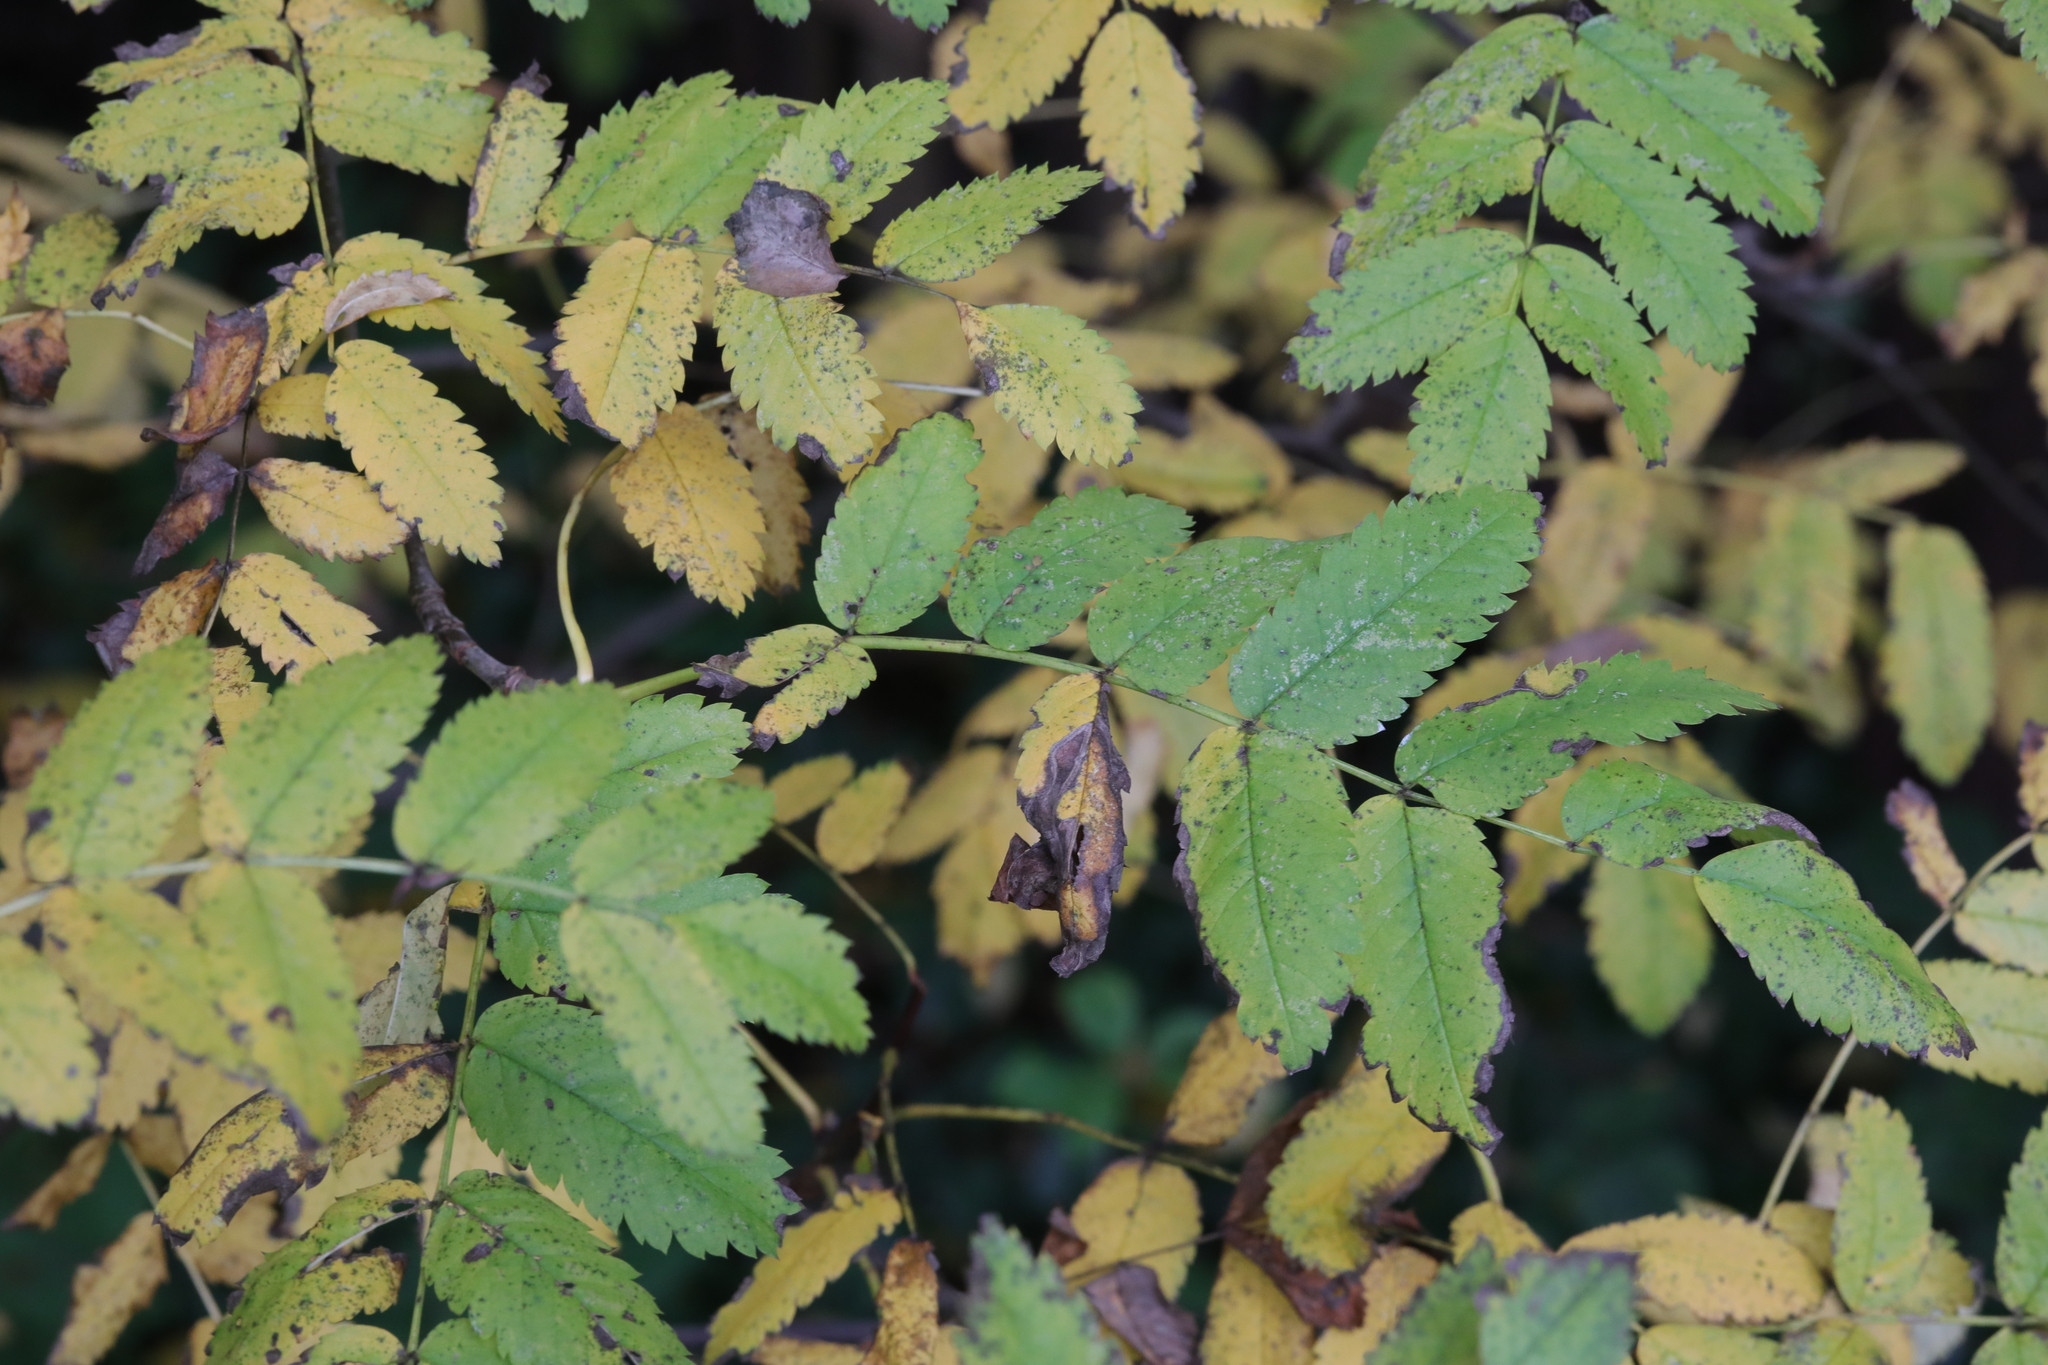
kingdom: Plantae
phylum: Tracheophyta
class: Magnoliopsida
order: Rosales
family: Rosaceae
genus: Sorbus
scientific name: Sorbus aucuparia
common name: Rowan
